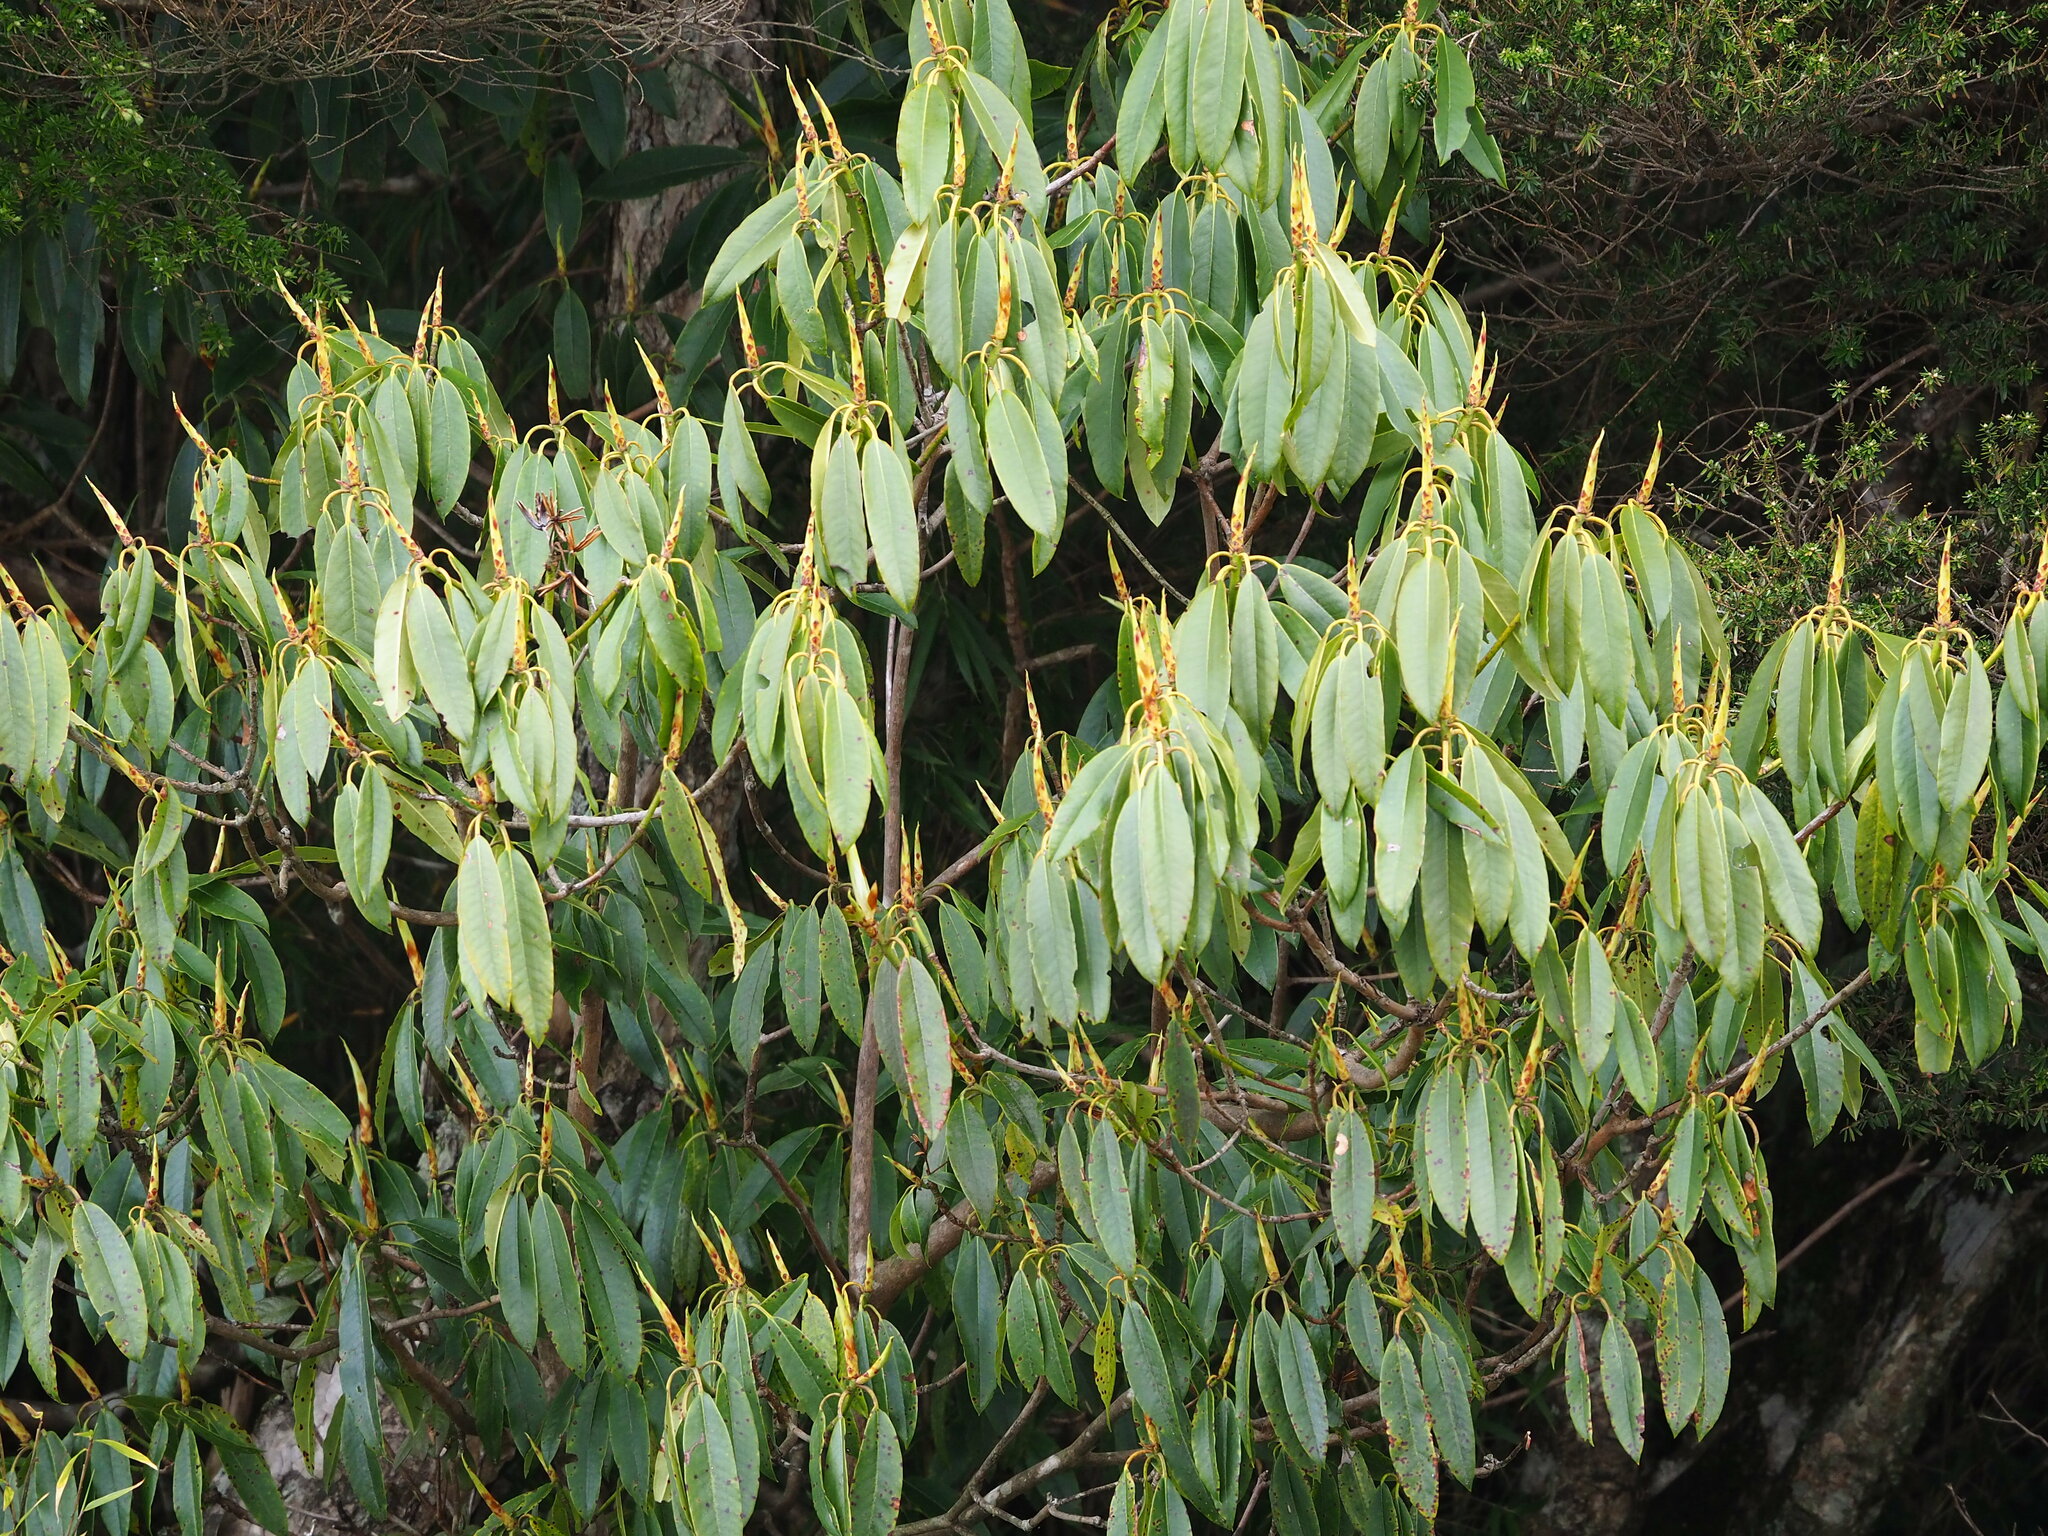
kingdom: Plantae
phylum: Tracheophyta
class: Magnoliopsida
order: Ericales
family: Ericaceae
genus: Rhododendron
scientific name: Rhododendron pseudochrysanthum
